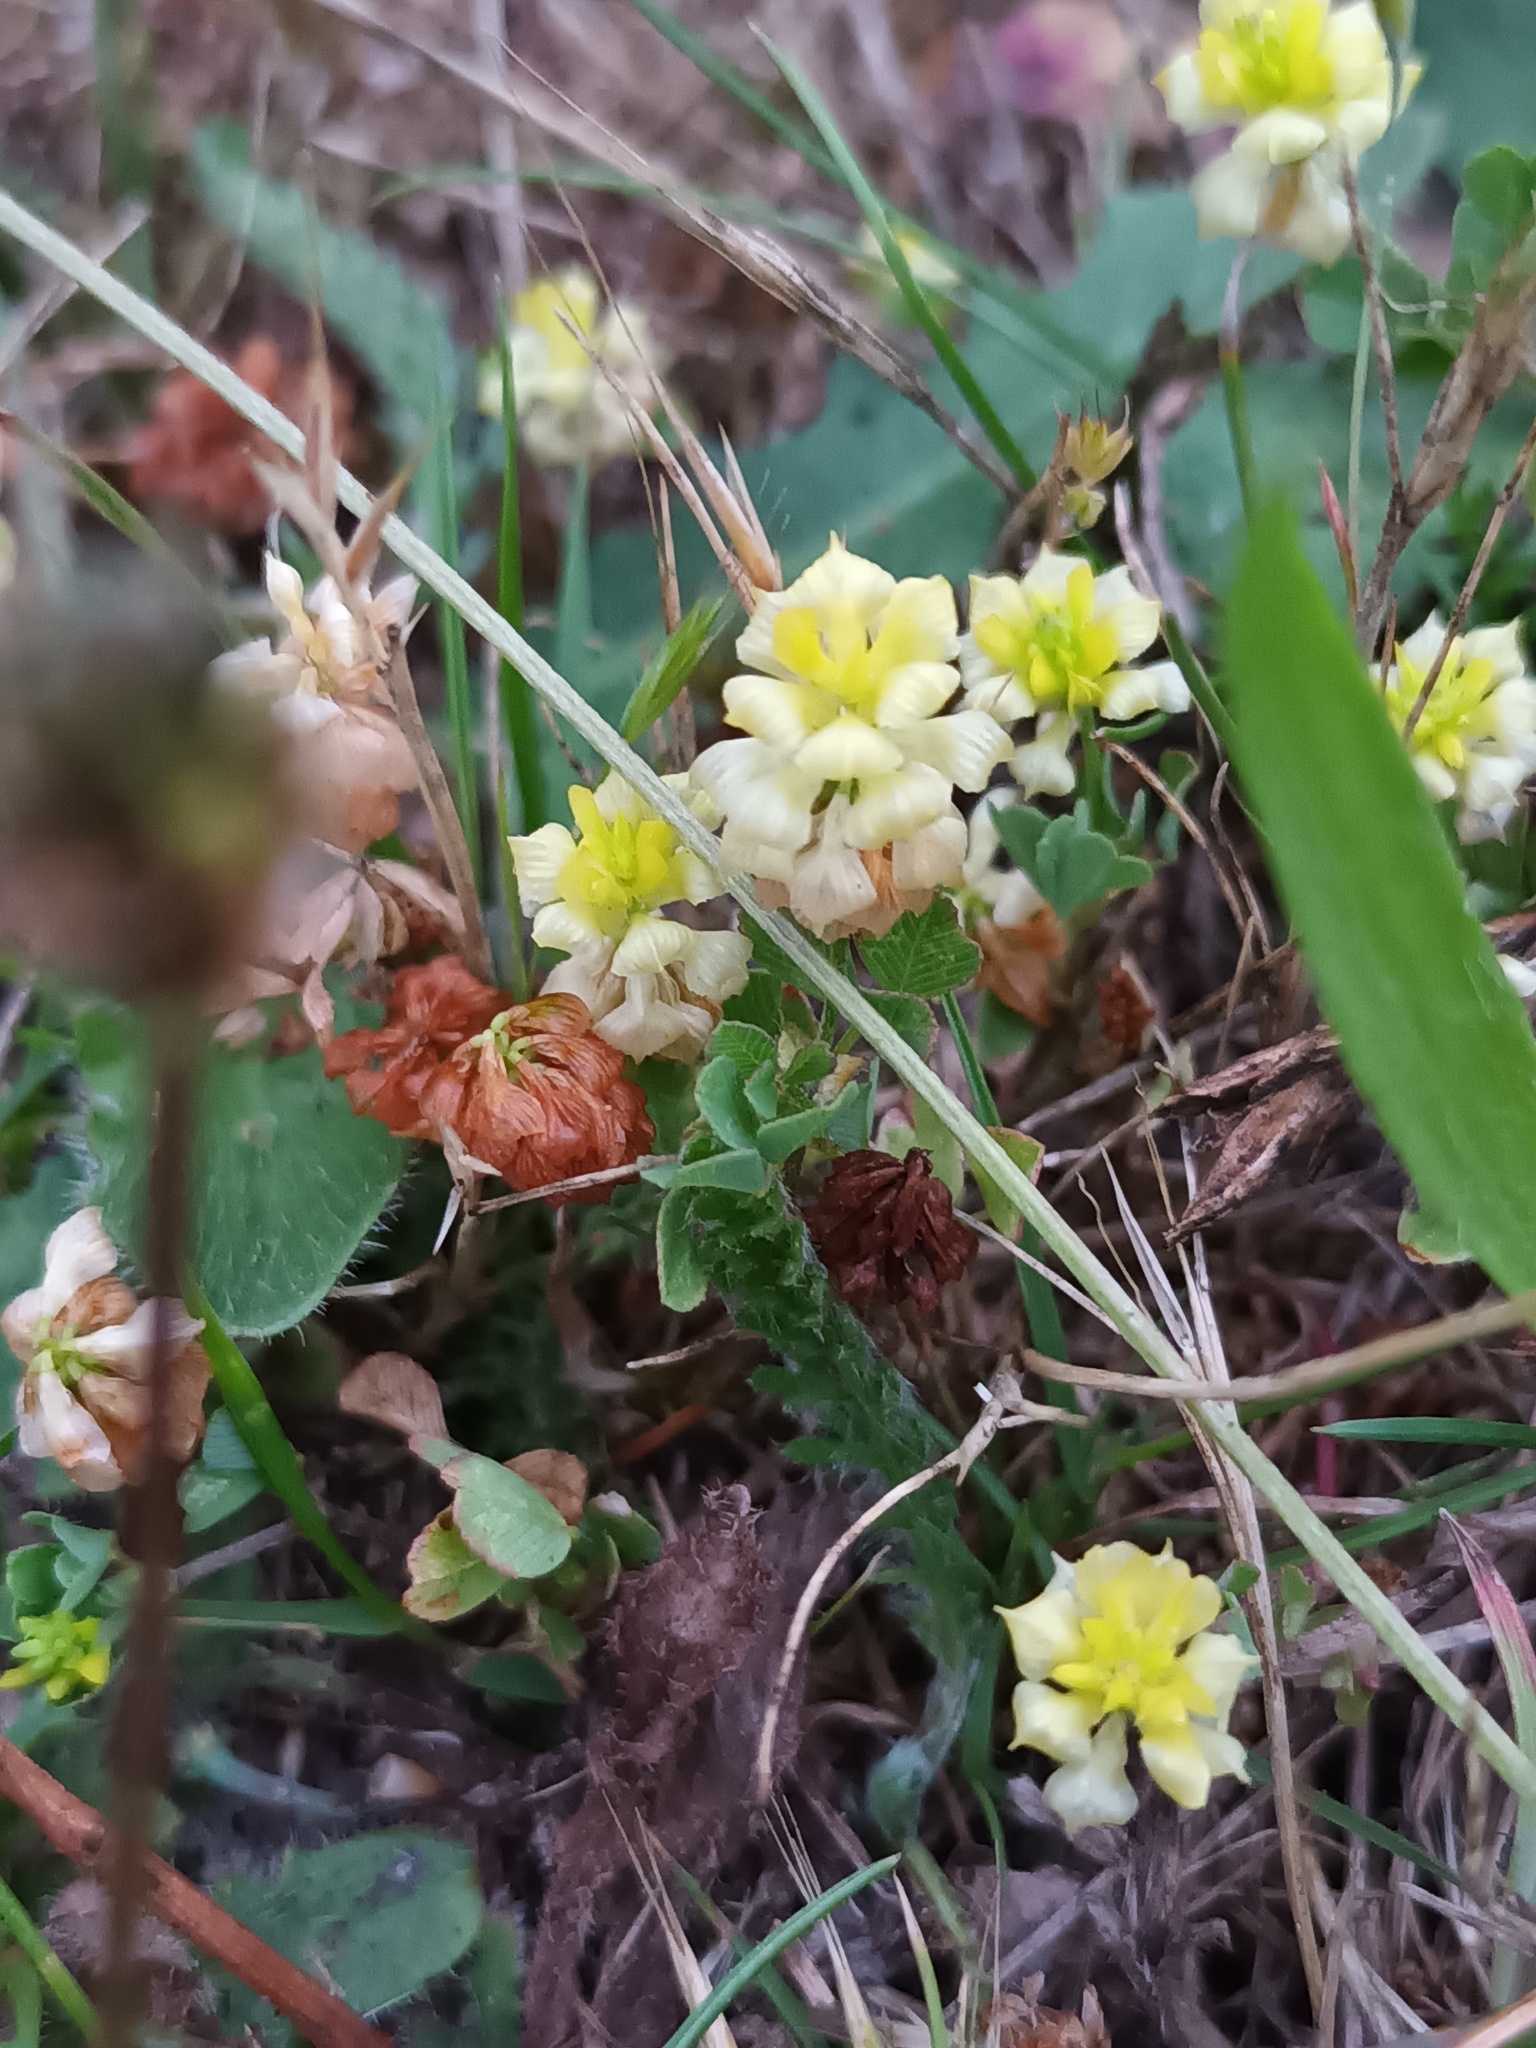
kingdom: Plantae
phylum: Tracheophyta
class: Magnoliopsida
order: Fabales
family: Fabaceae
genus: Trifolium
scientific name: Trifolium campestre
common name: Field clover
